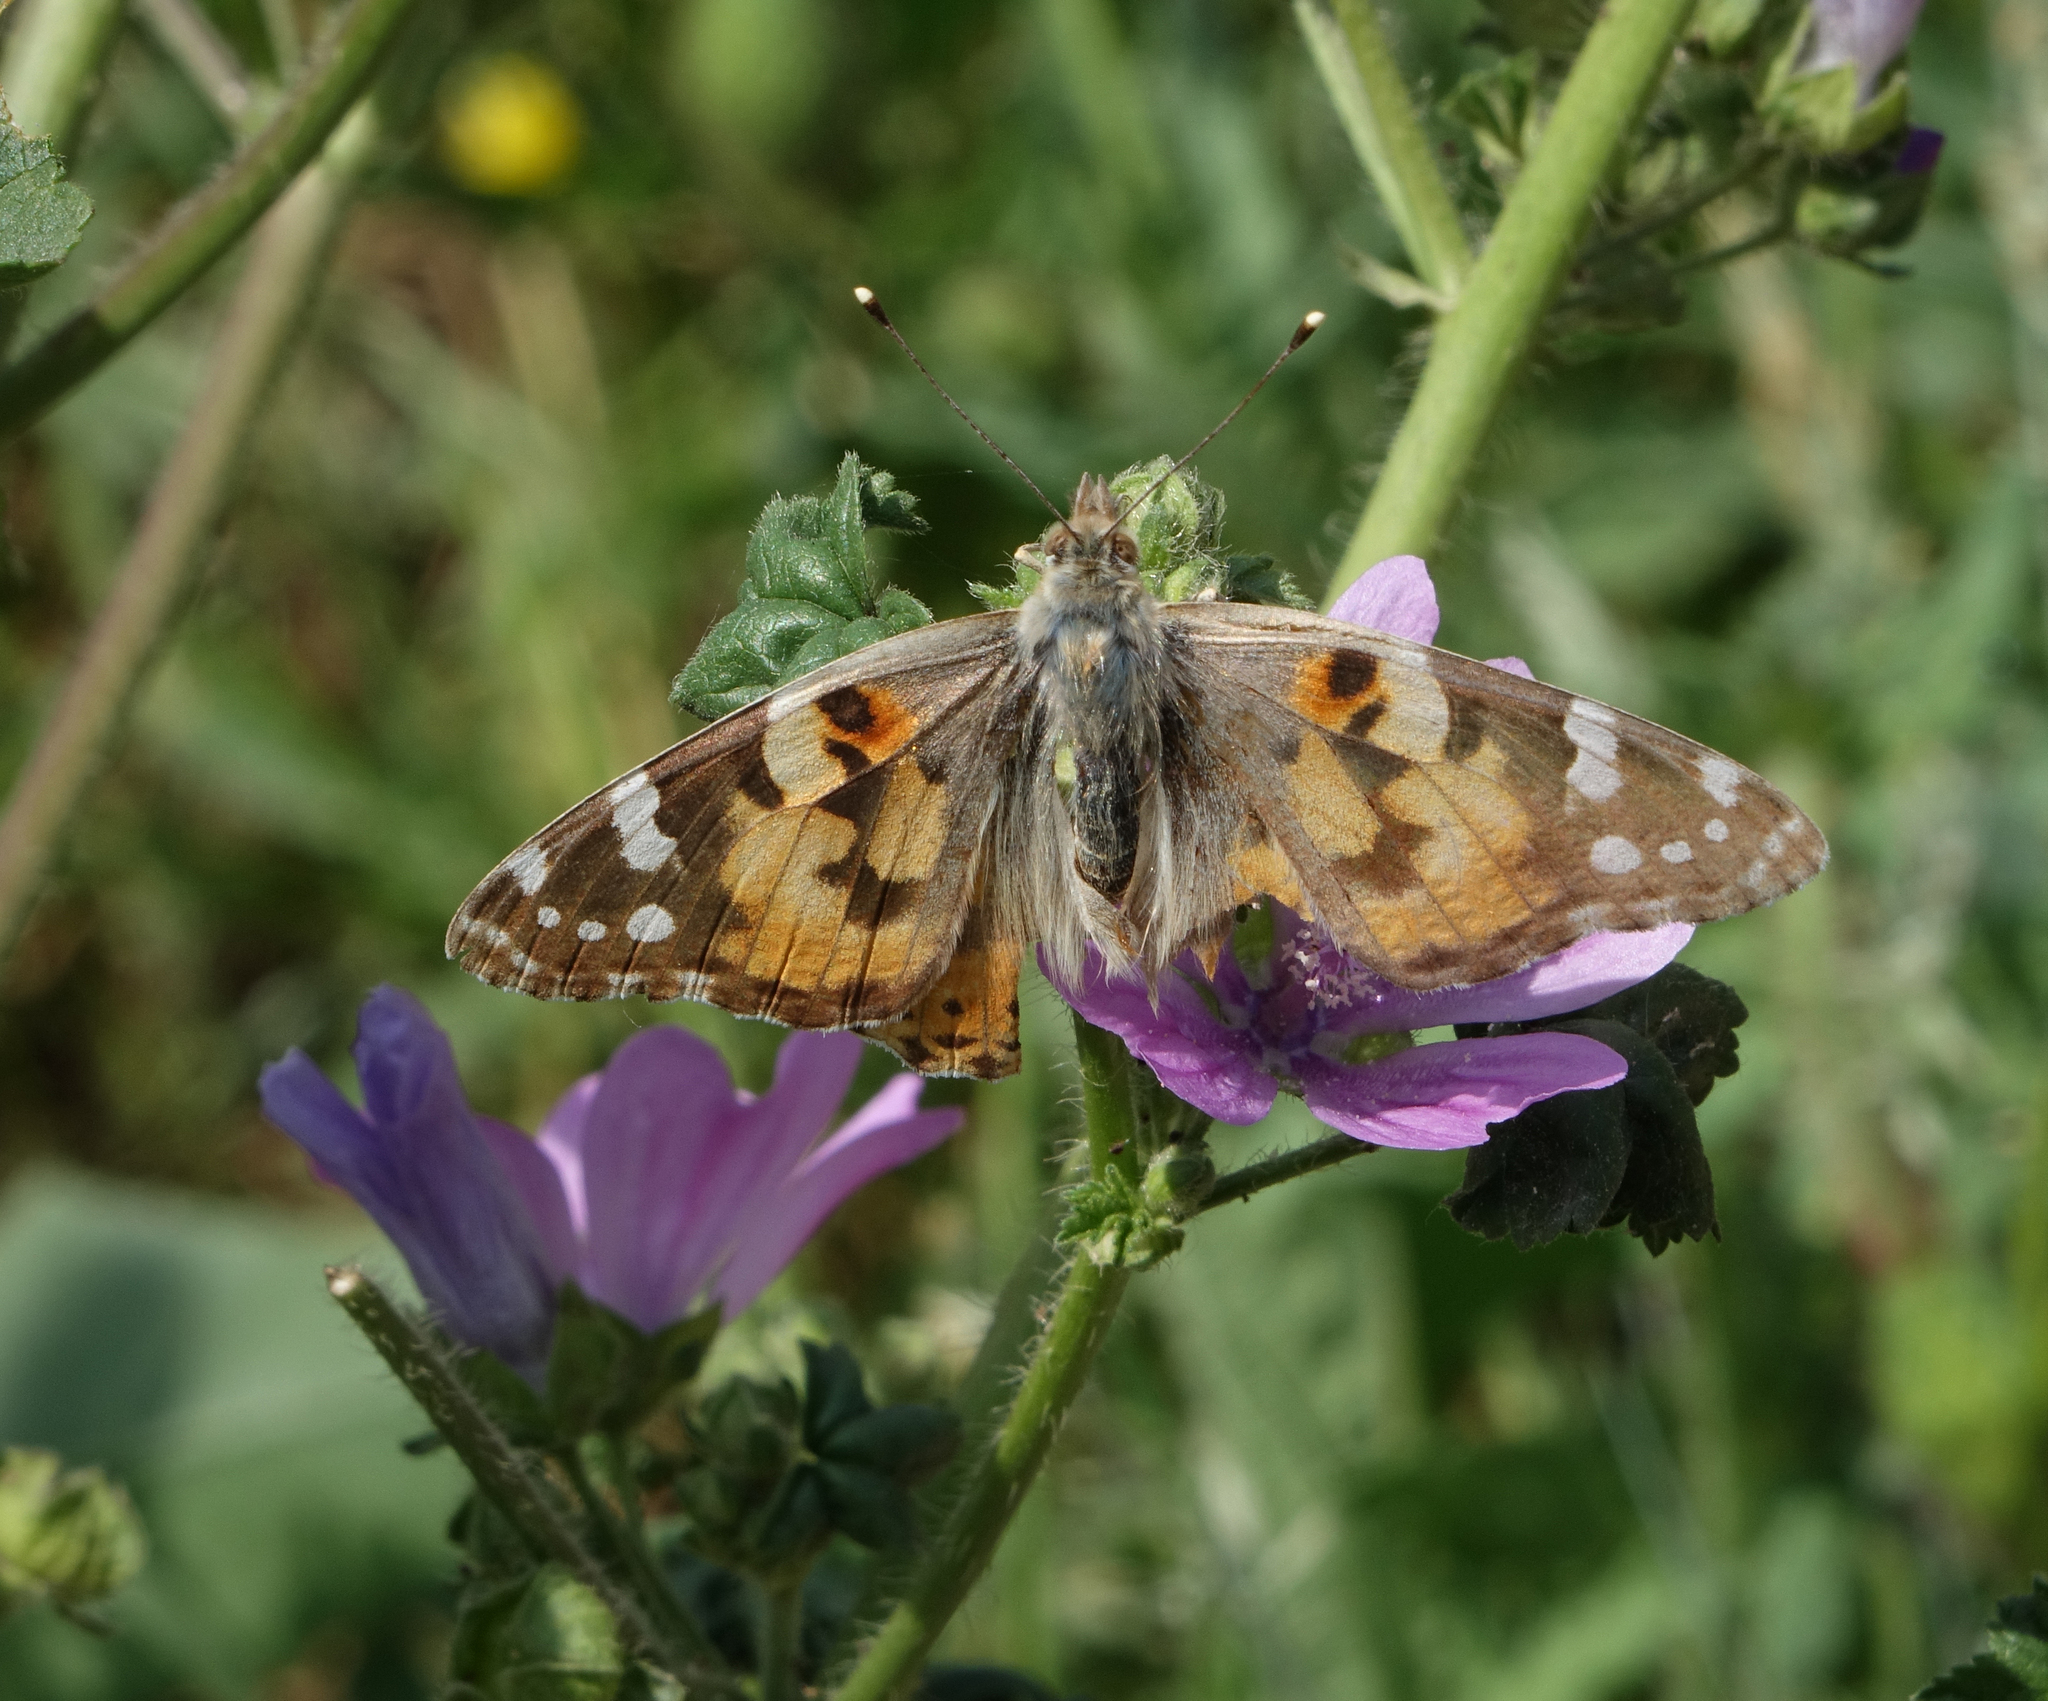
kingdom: Animalia
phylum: Arthropoda
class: Insecta
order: Lepidoptera
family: Nymphalidae
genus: Vanessa
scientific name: Vanessa cardui
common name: Painted lady
